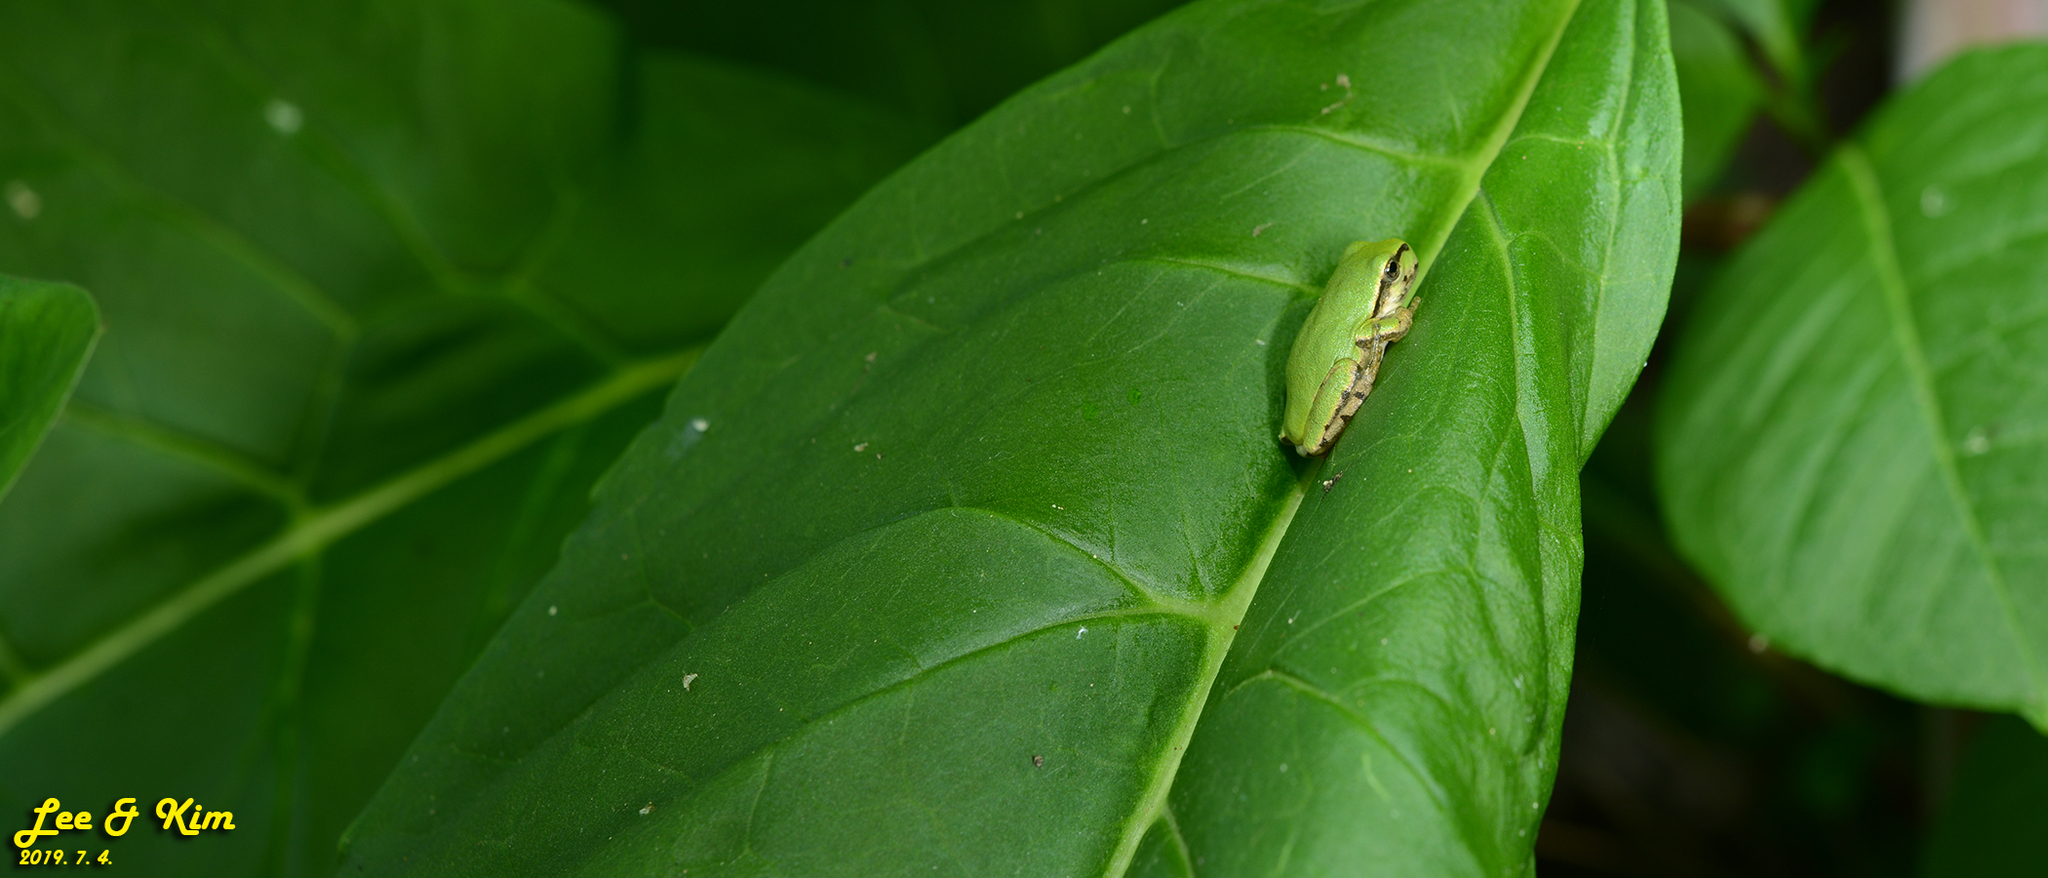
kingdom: Animalia
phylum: Chordata
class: Amphibia
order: Anura
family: Hylidae
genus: Dryophytes
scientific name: Dryophytes japonicus
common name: Japanese treefrog
